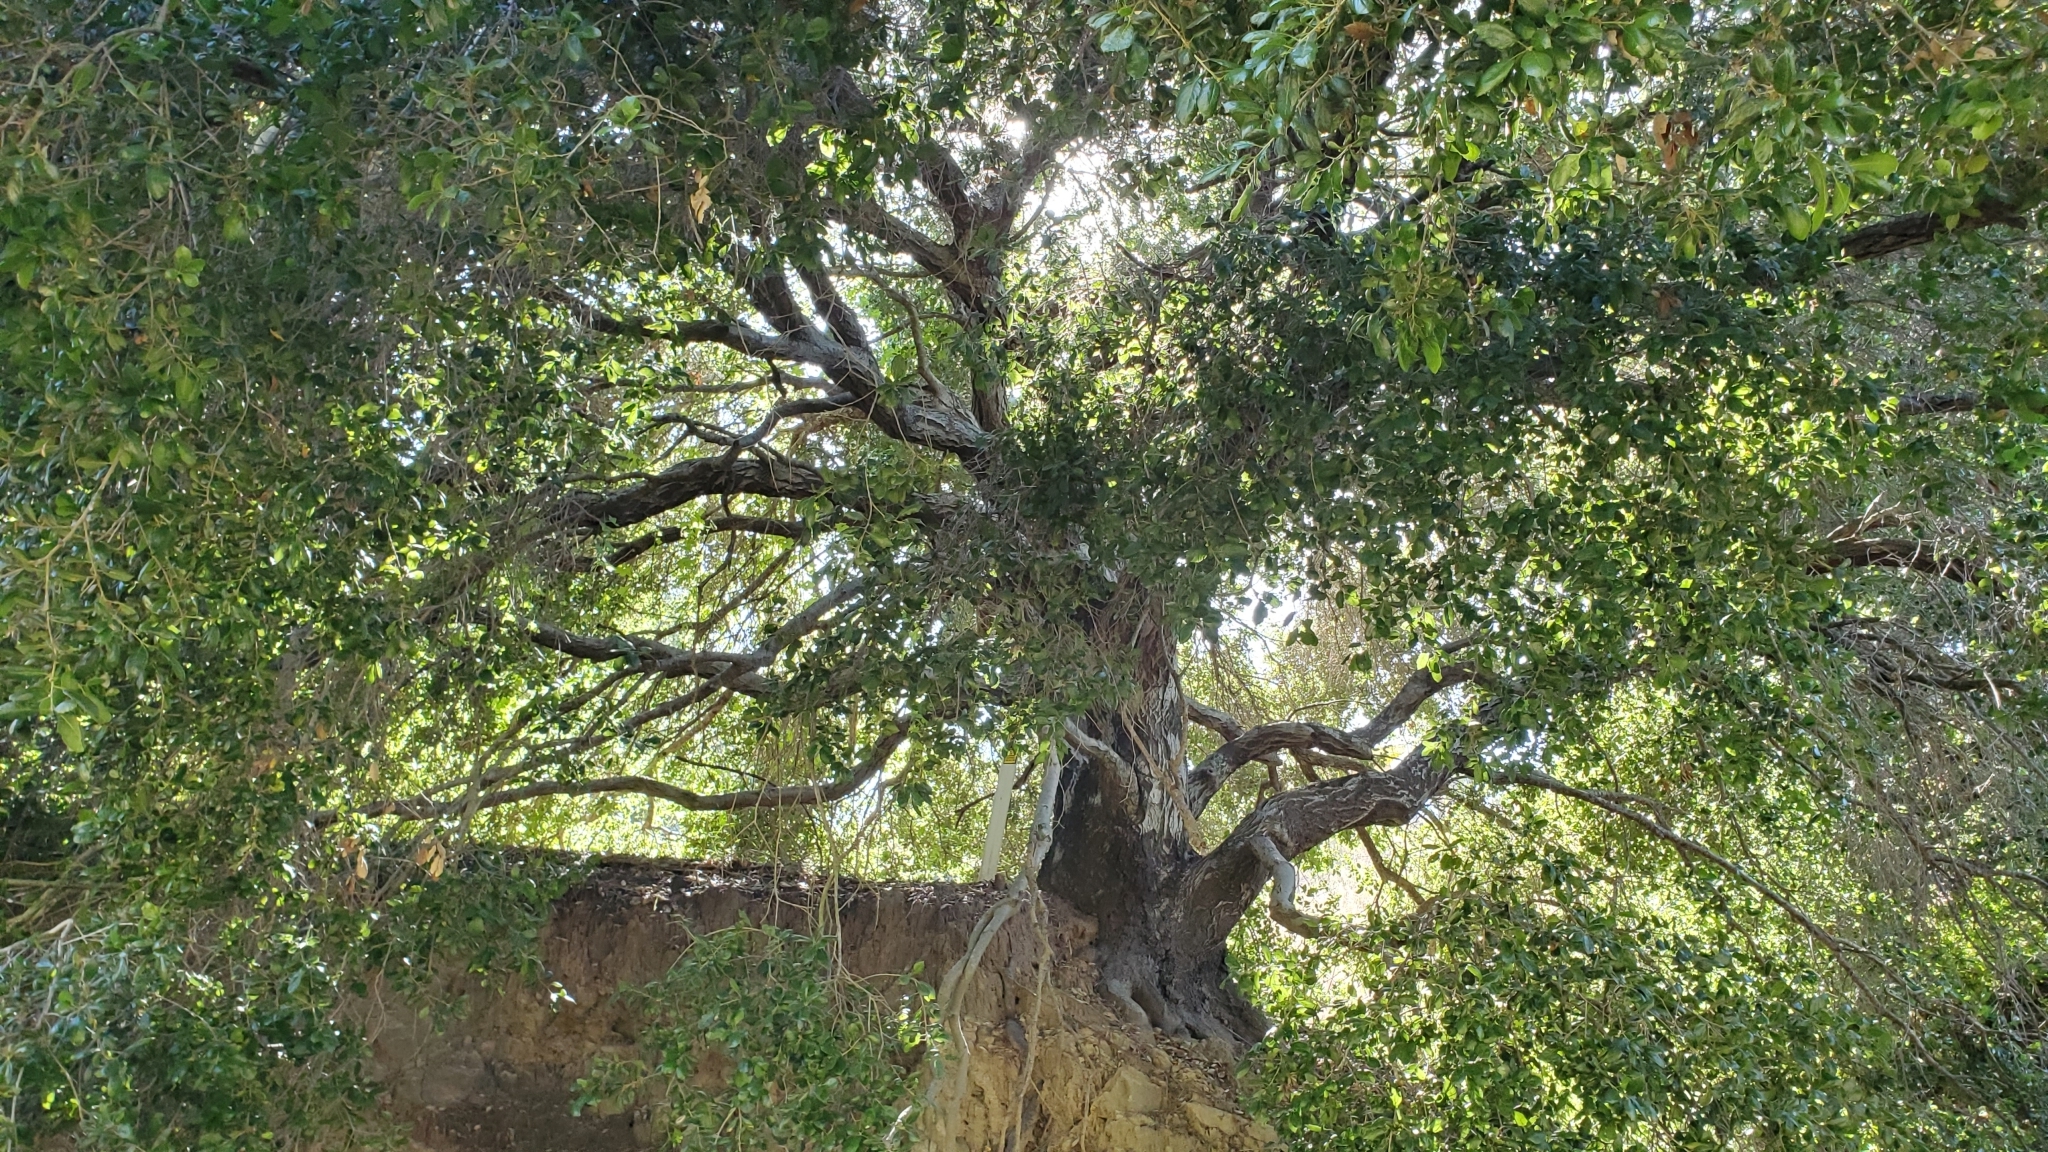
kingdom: Plantae
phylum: Tracheophyta
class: Magnoliopsida
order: Fagales
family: Fagaceae
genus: Quercus
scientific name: Quercus agrifolia
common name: California live oak
